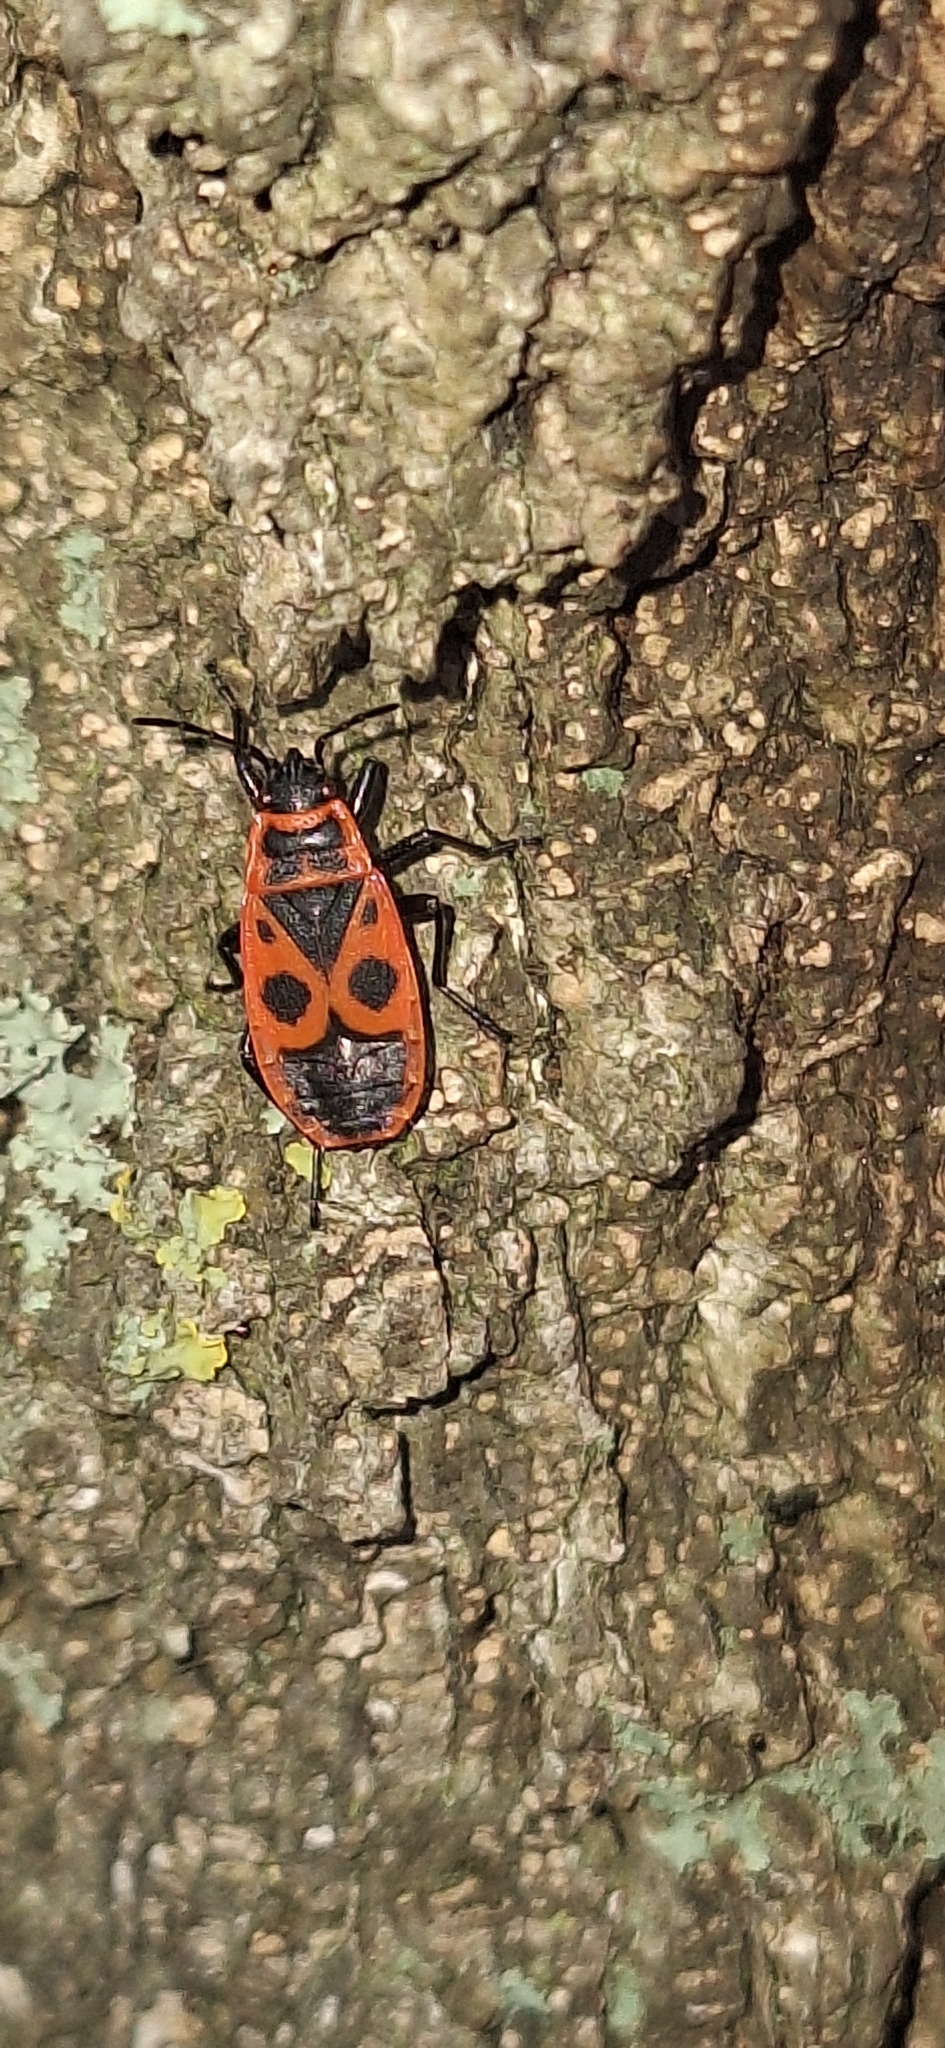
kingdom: Animalia
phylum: Arthropoda
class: Insecta
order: Hemiptera
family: Pyrrhocoridae
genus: Pyrrhocoris
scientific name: Pyrrhocoris apterus
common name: Firebug
